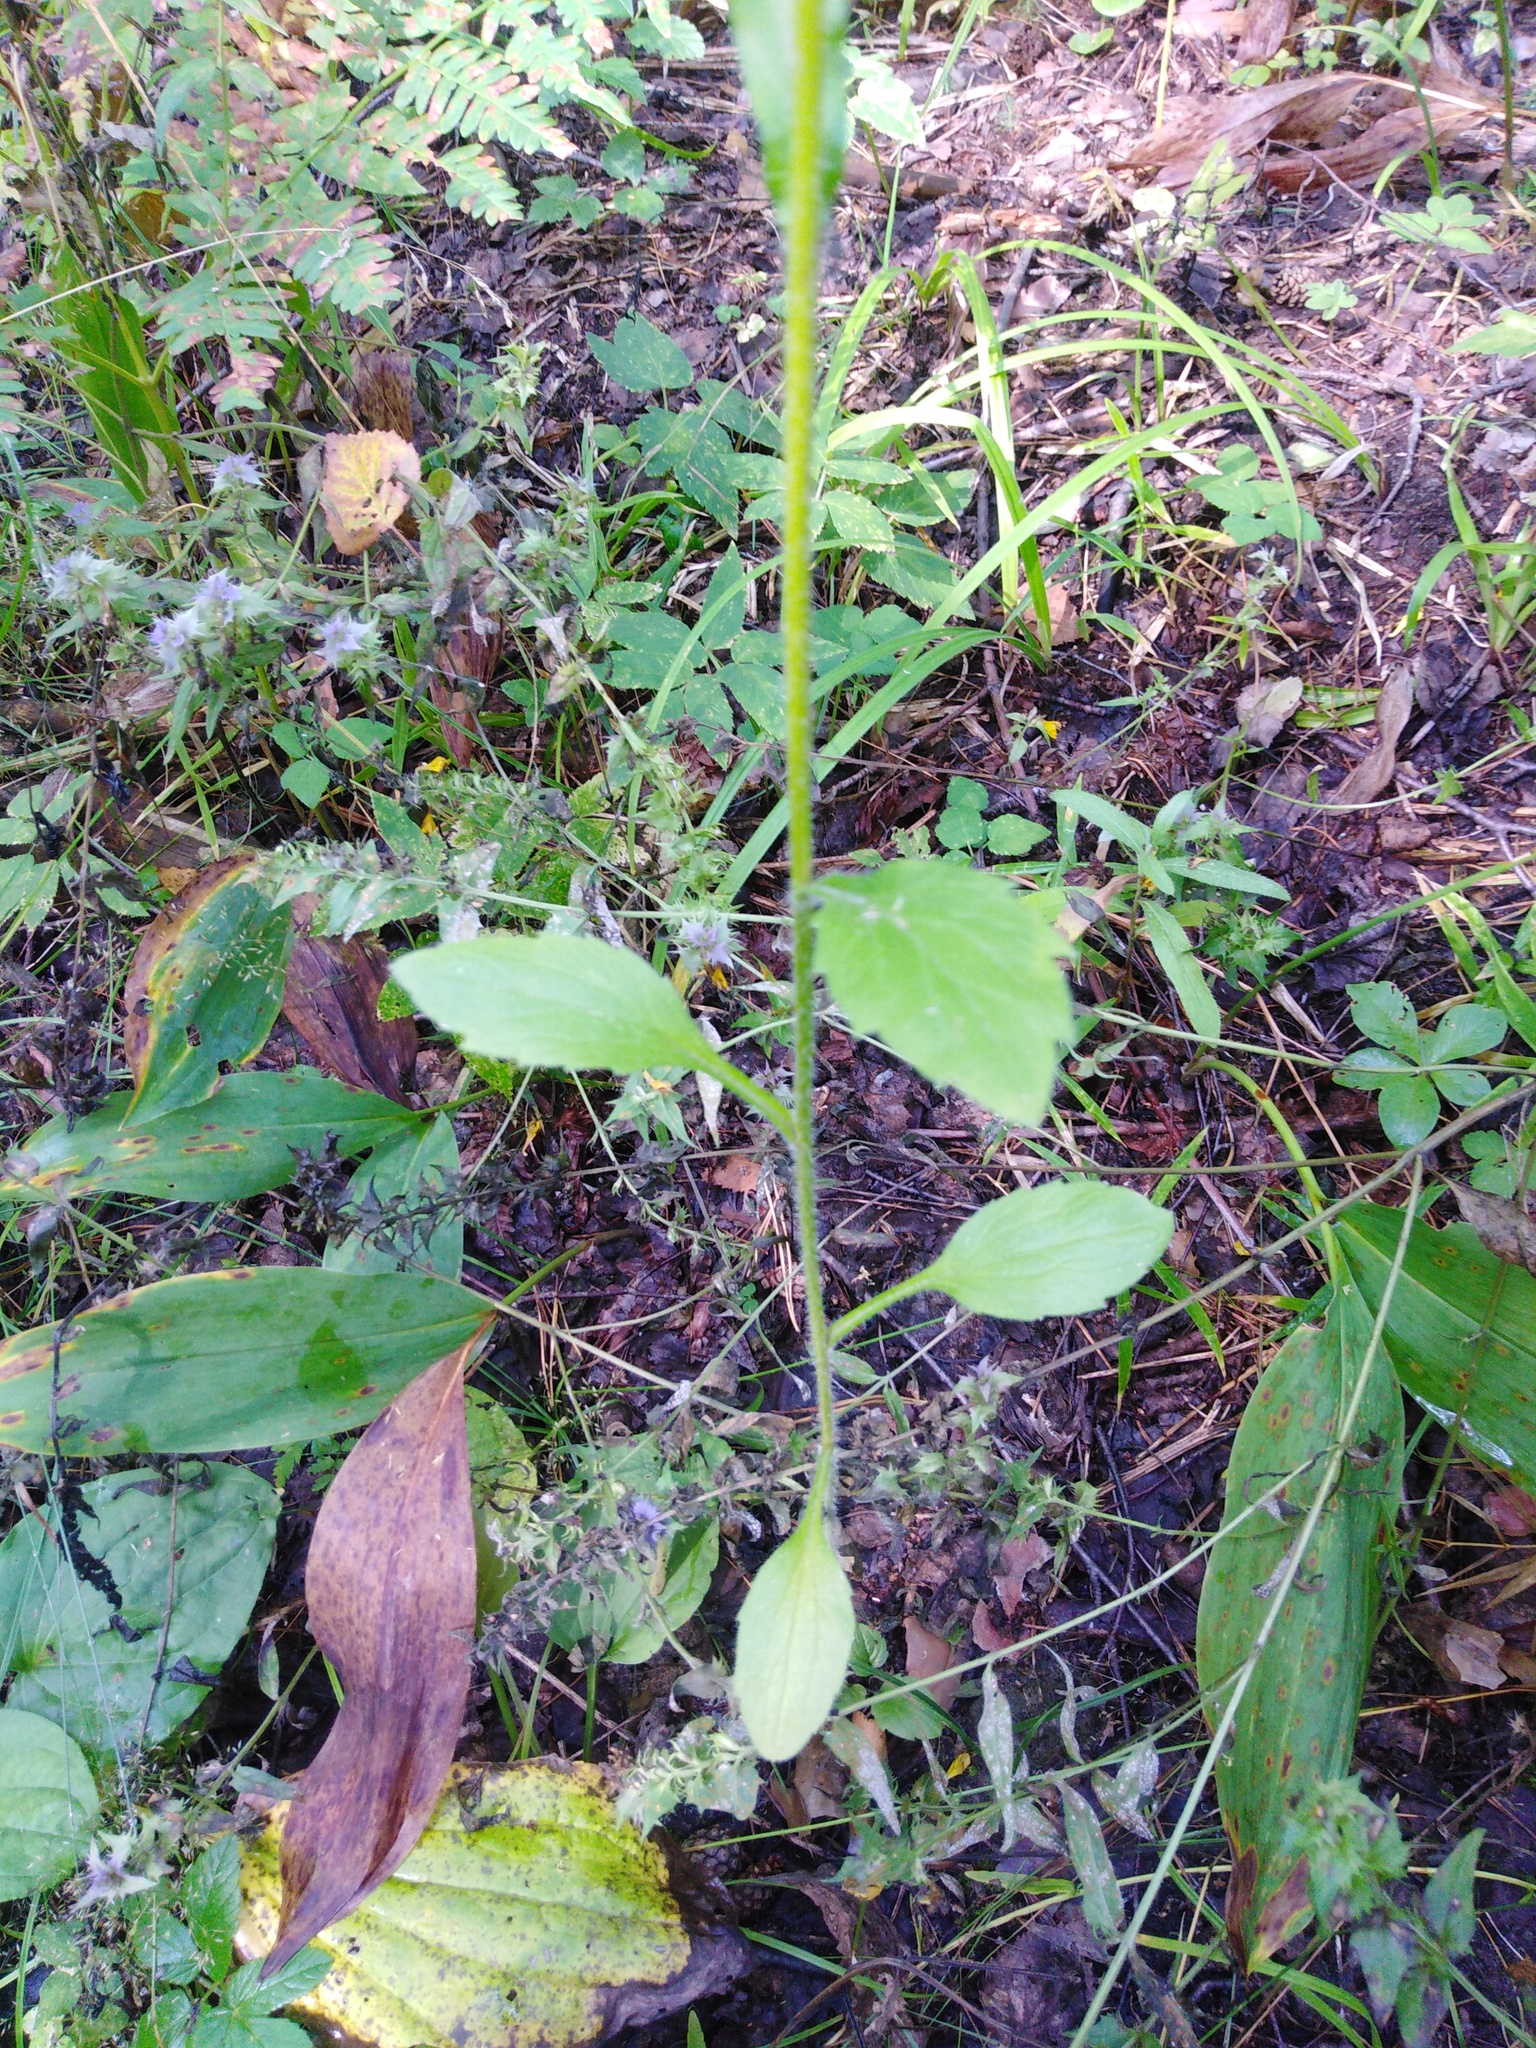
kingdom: Plantae
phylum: Tracheophyta
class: Magnoliopsida
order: Asterales
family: Asteraceae
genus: Erigeron
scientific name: Erigeron annuus
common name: Tall fleabane
